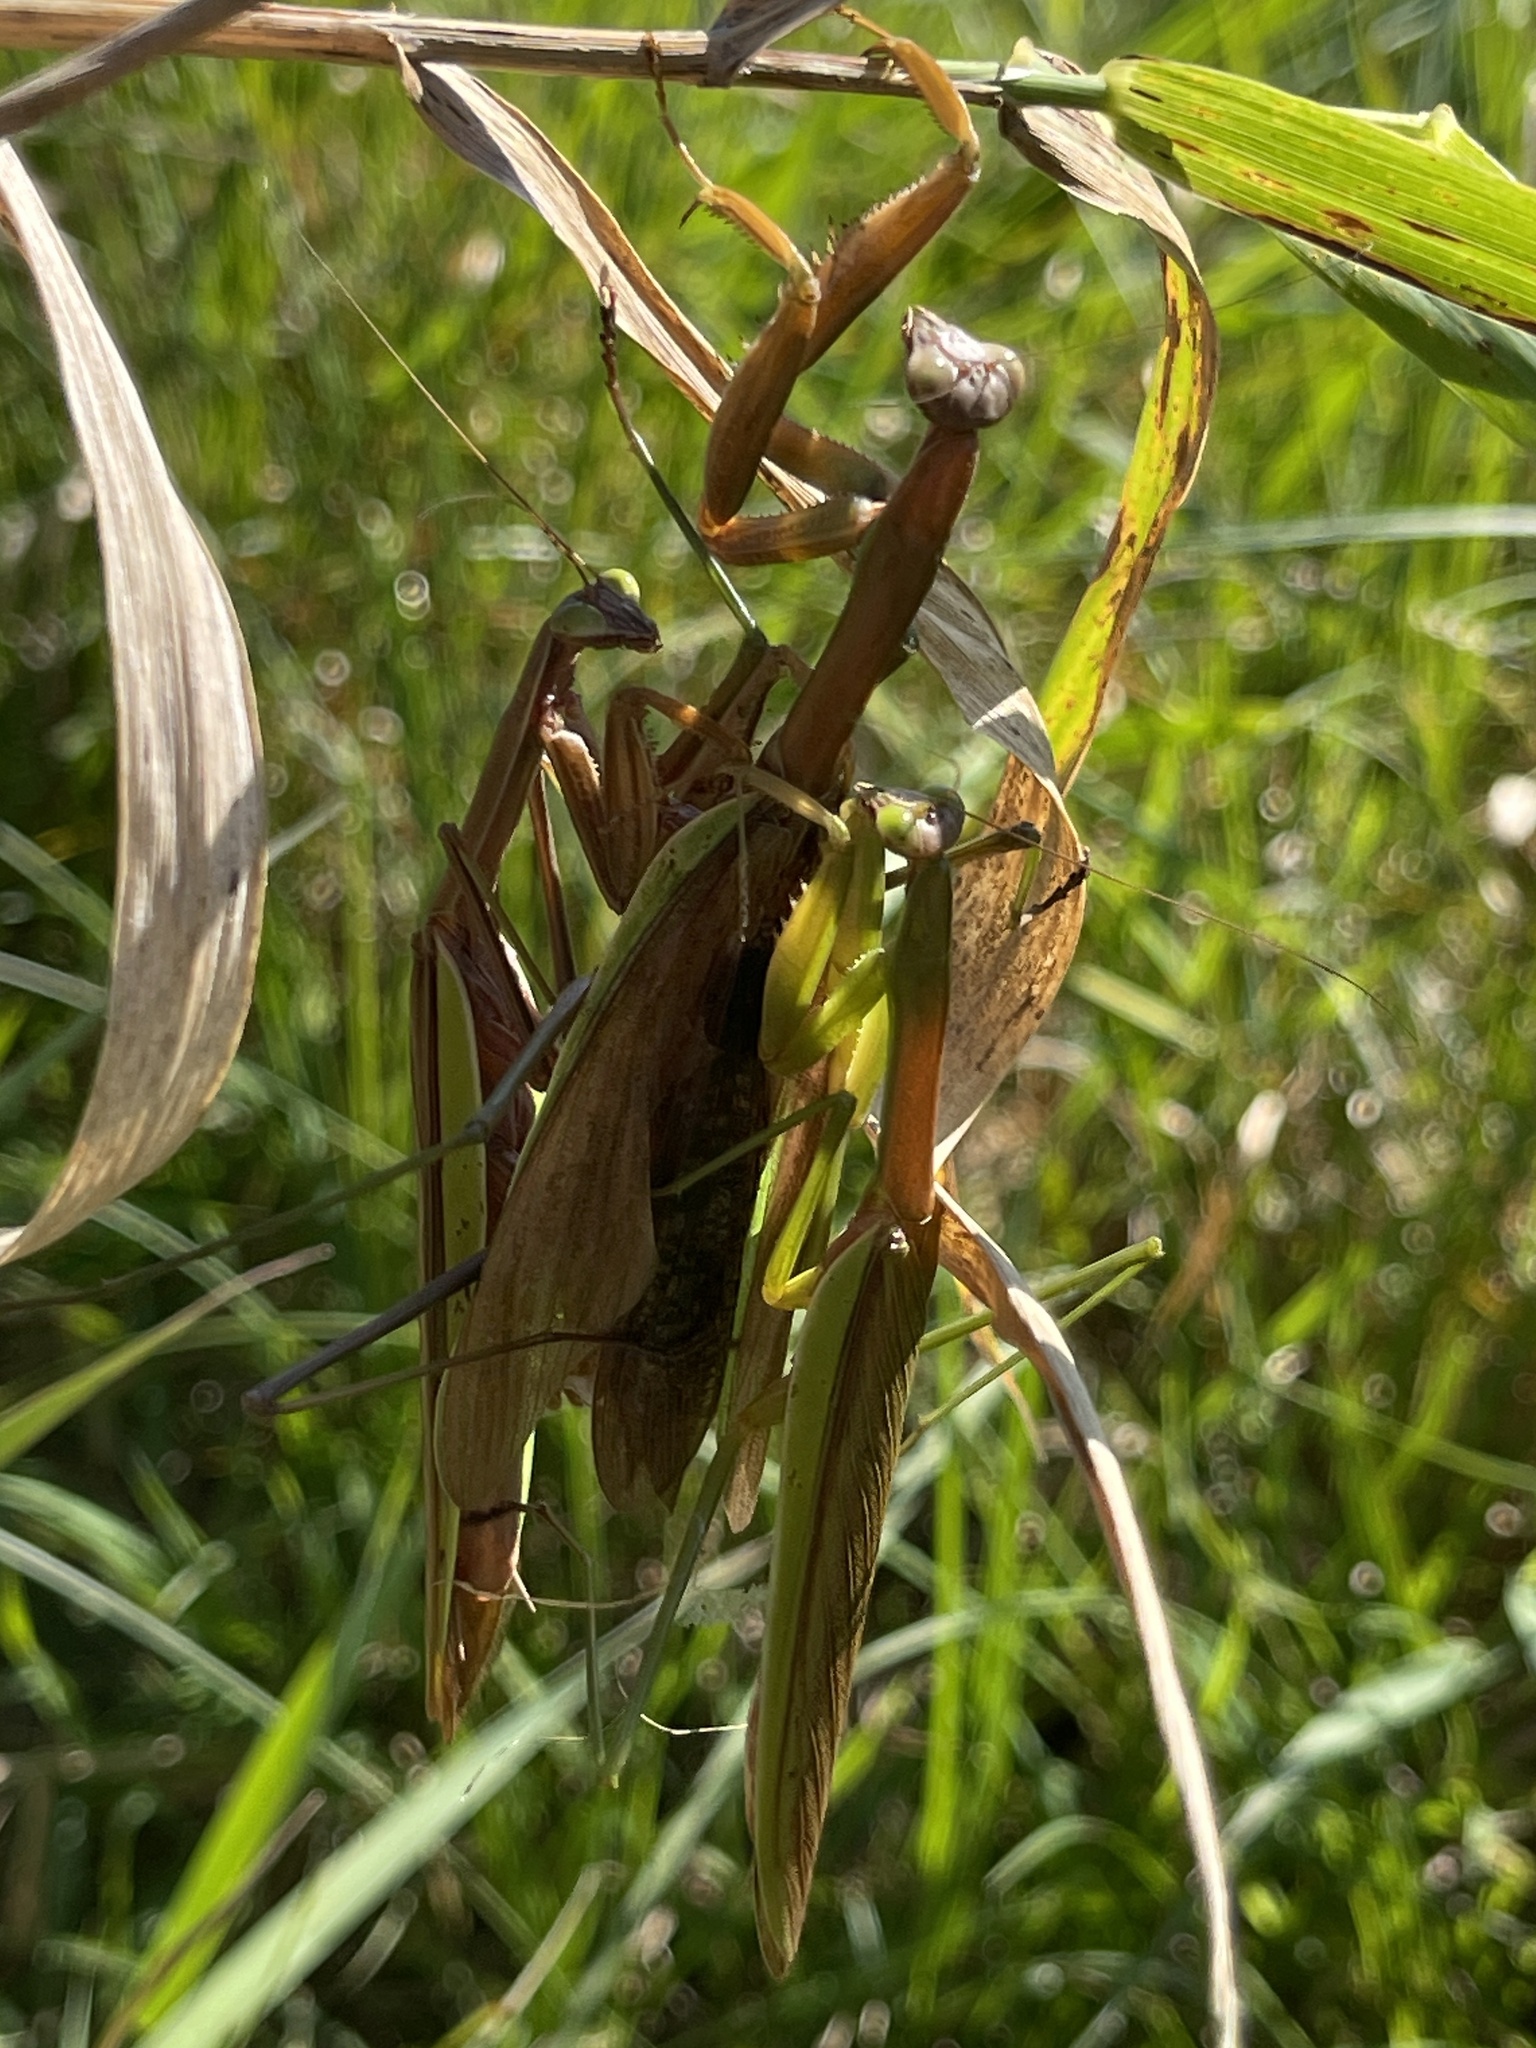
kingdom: Animalia
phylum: Arthropoda
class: Insecta
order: Mantodea
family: Mantidae
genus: Tenodera
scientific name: Tenodera sinensis
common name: Chinese mantis
